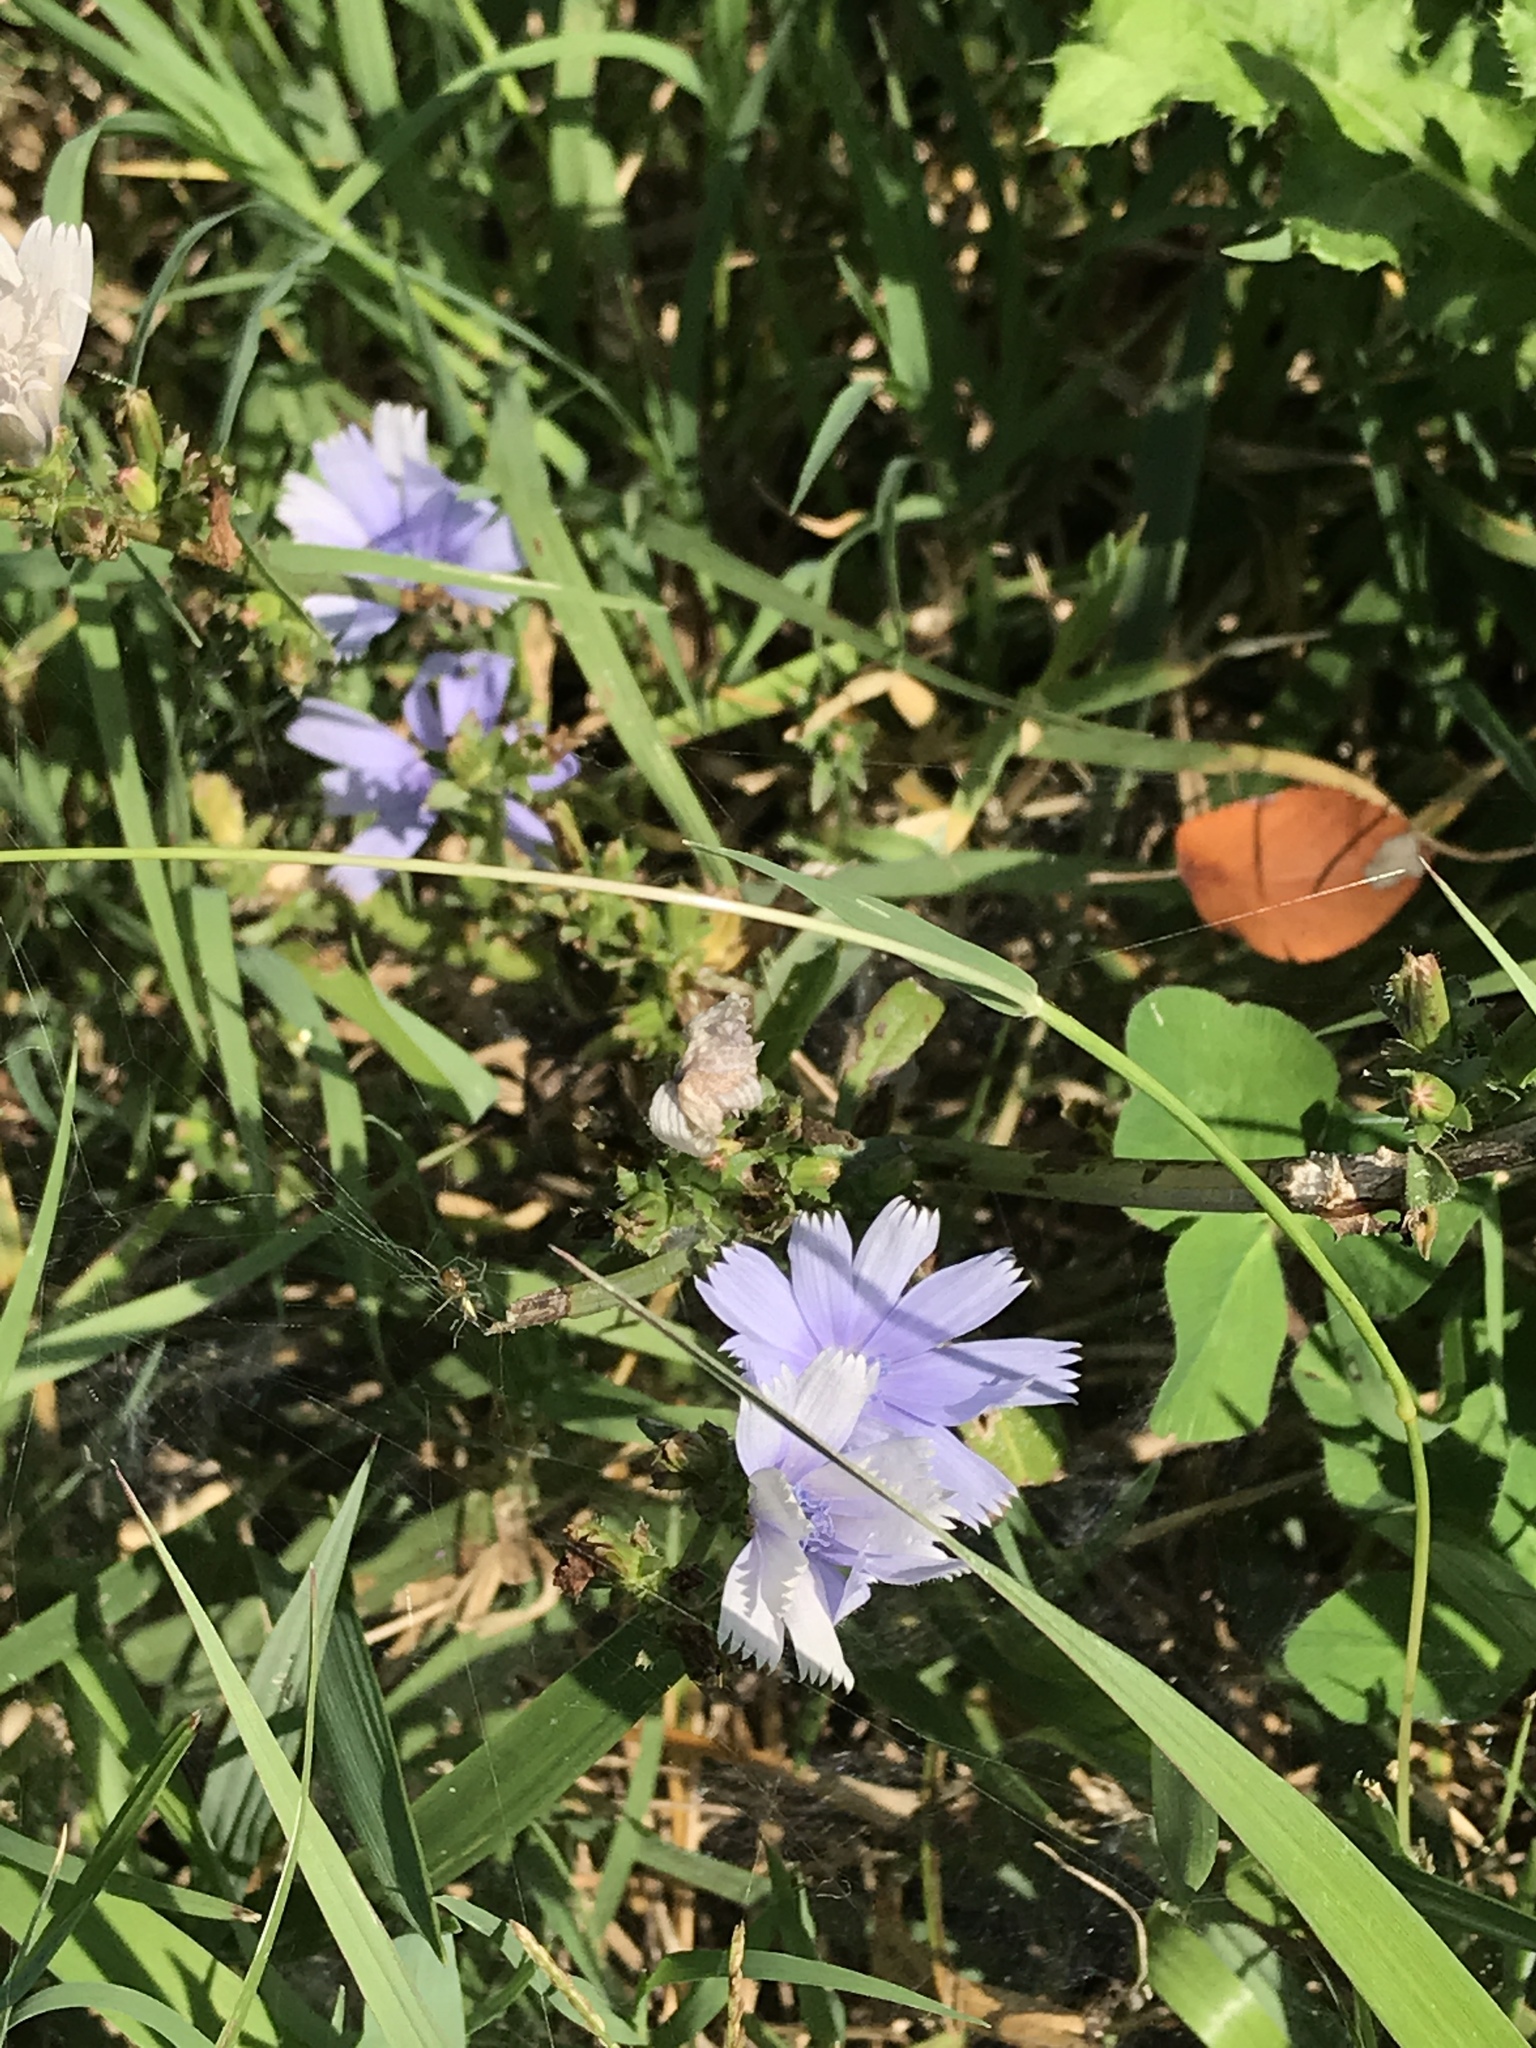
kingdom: Plantae
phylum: Tracheophyta
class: Magnoliopsida
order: Asterales
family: Asteraceae
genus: Cichorium
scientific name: Cichorium intybus
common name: Chicory
